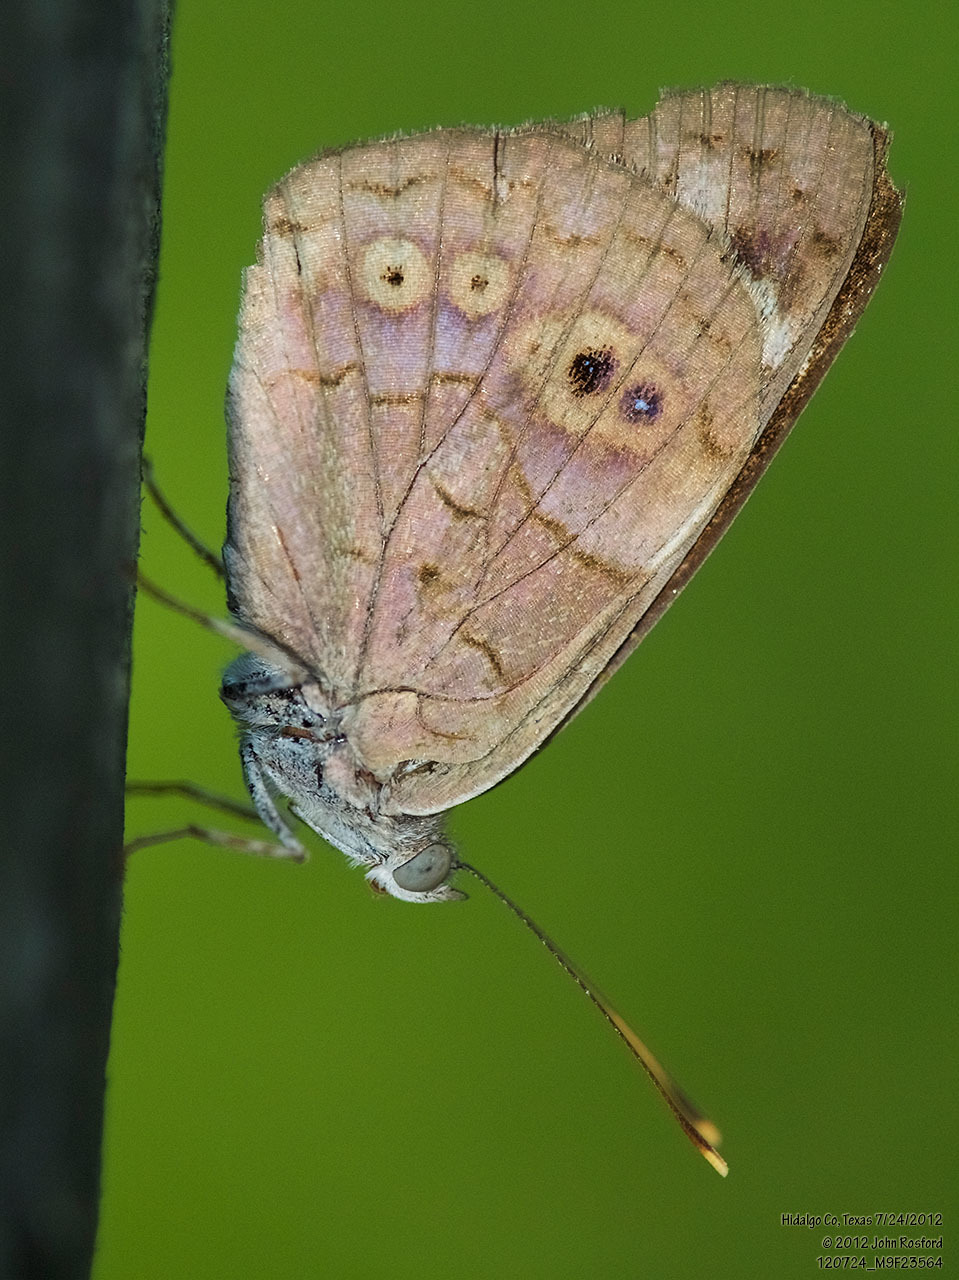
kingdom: Animalia
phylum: Arthropoda
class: Insecta
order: Lepidoptera
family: Nymphalidae
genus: Eunica
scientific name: Eunica monima
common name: Dingy purplewing
